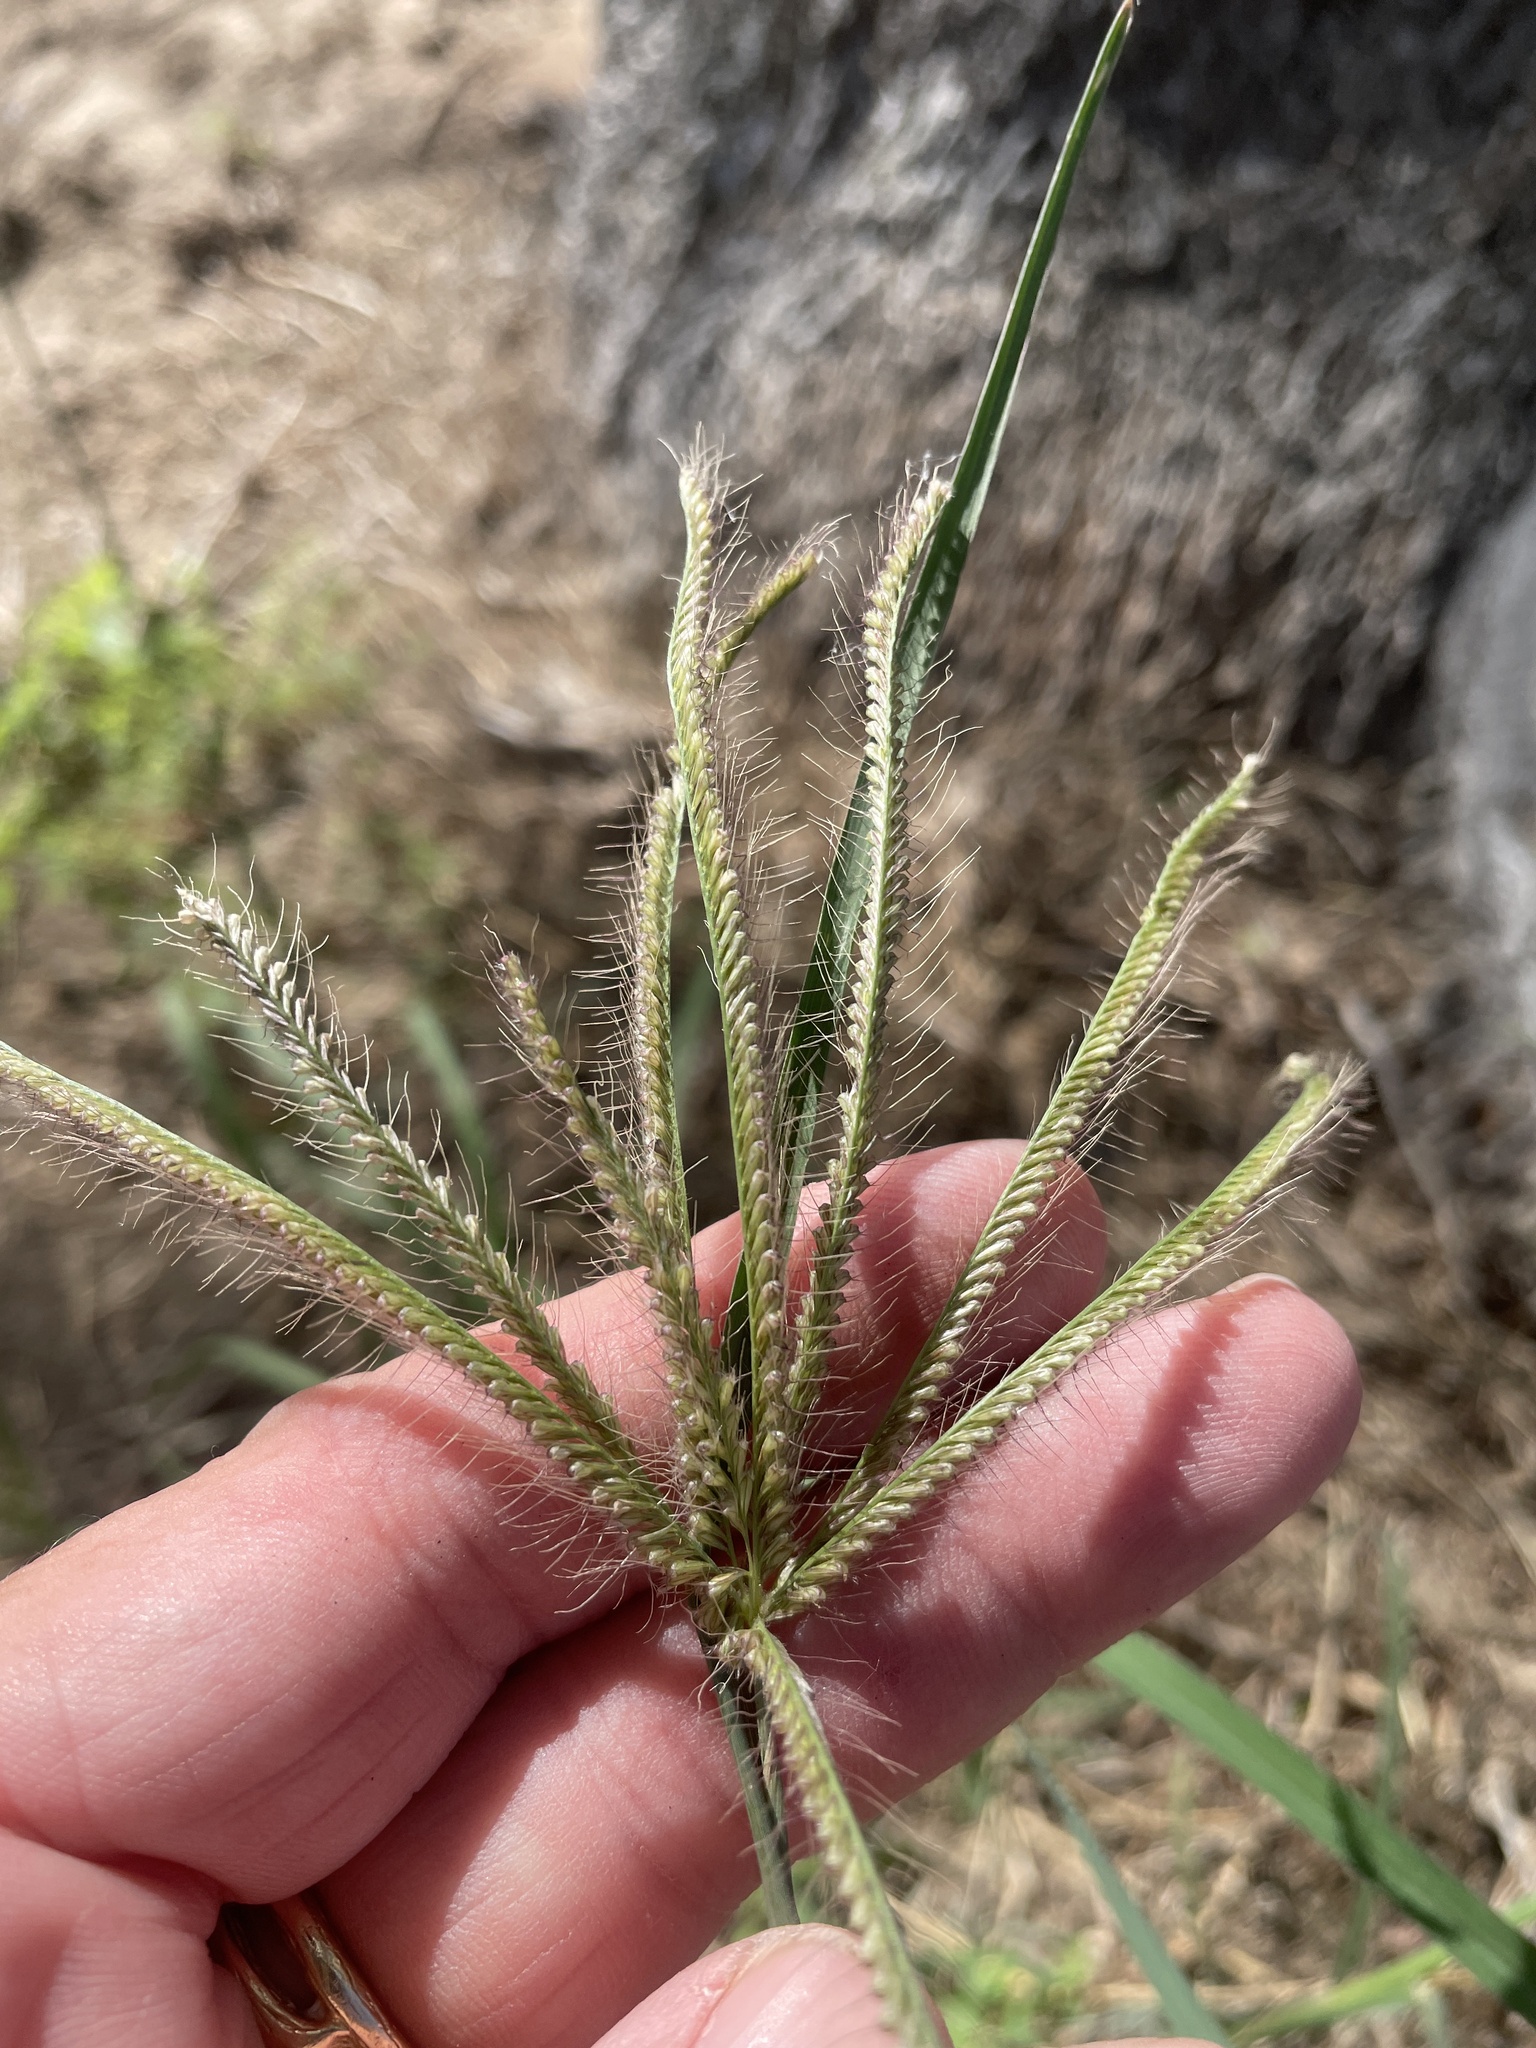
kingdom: Plantae
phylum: Tracheophyta
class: Liliopsida
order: Poales
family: Poaceae
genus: Chloris
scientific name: Chloris barbata
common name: Swollen fingergrass
